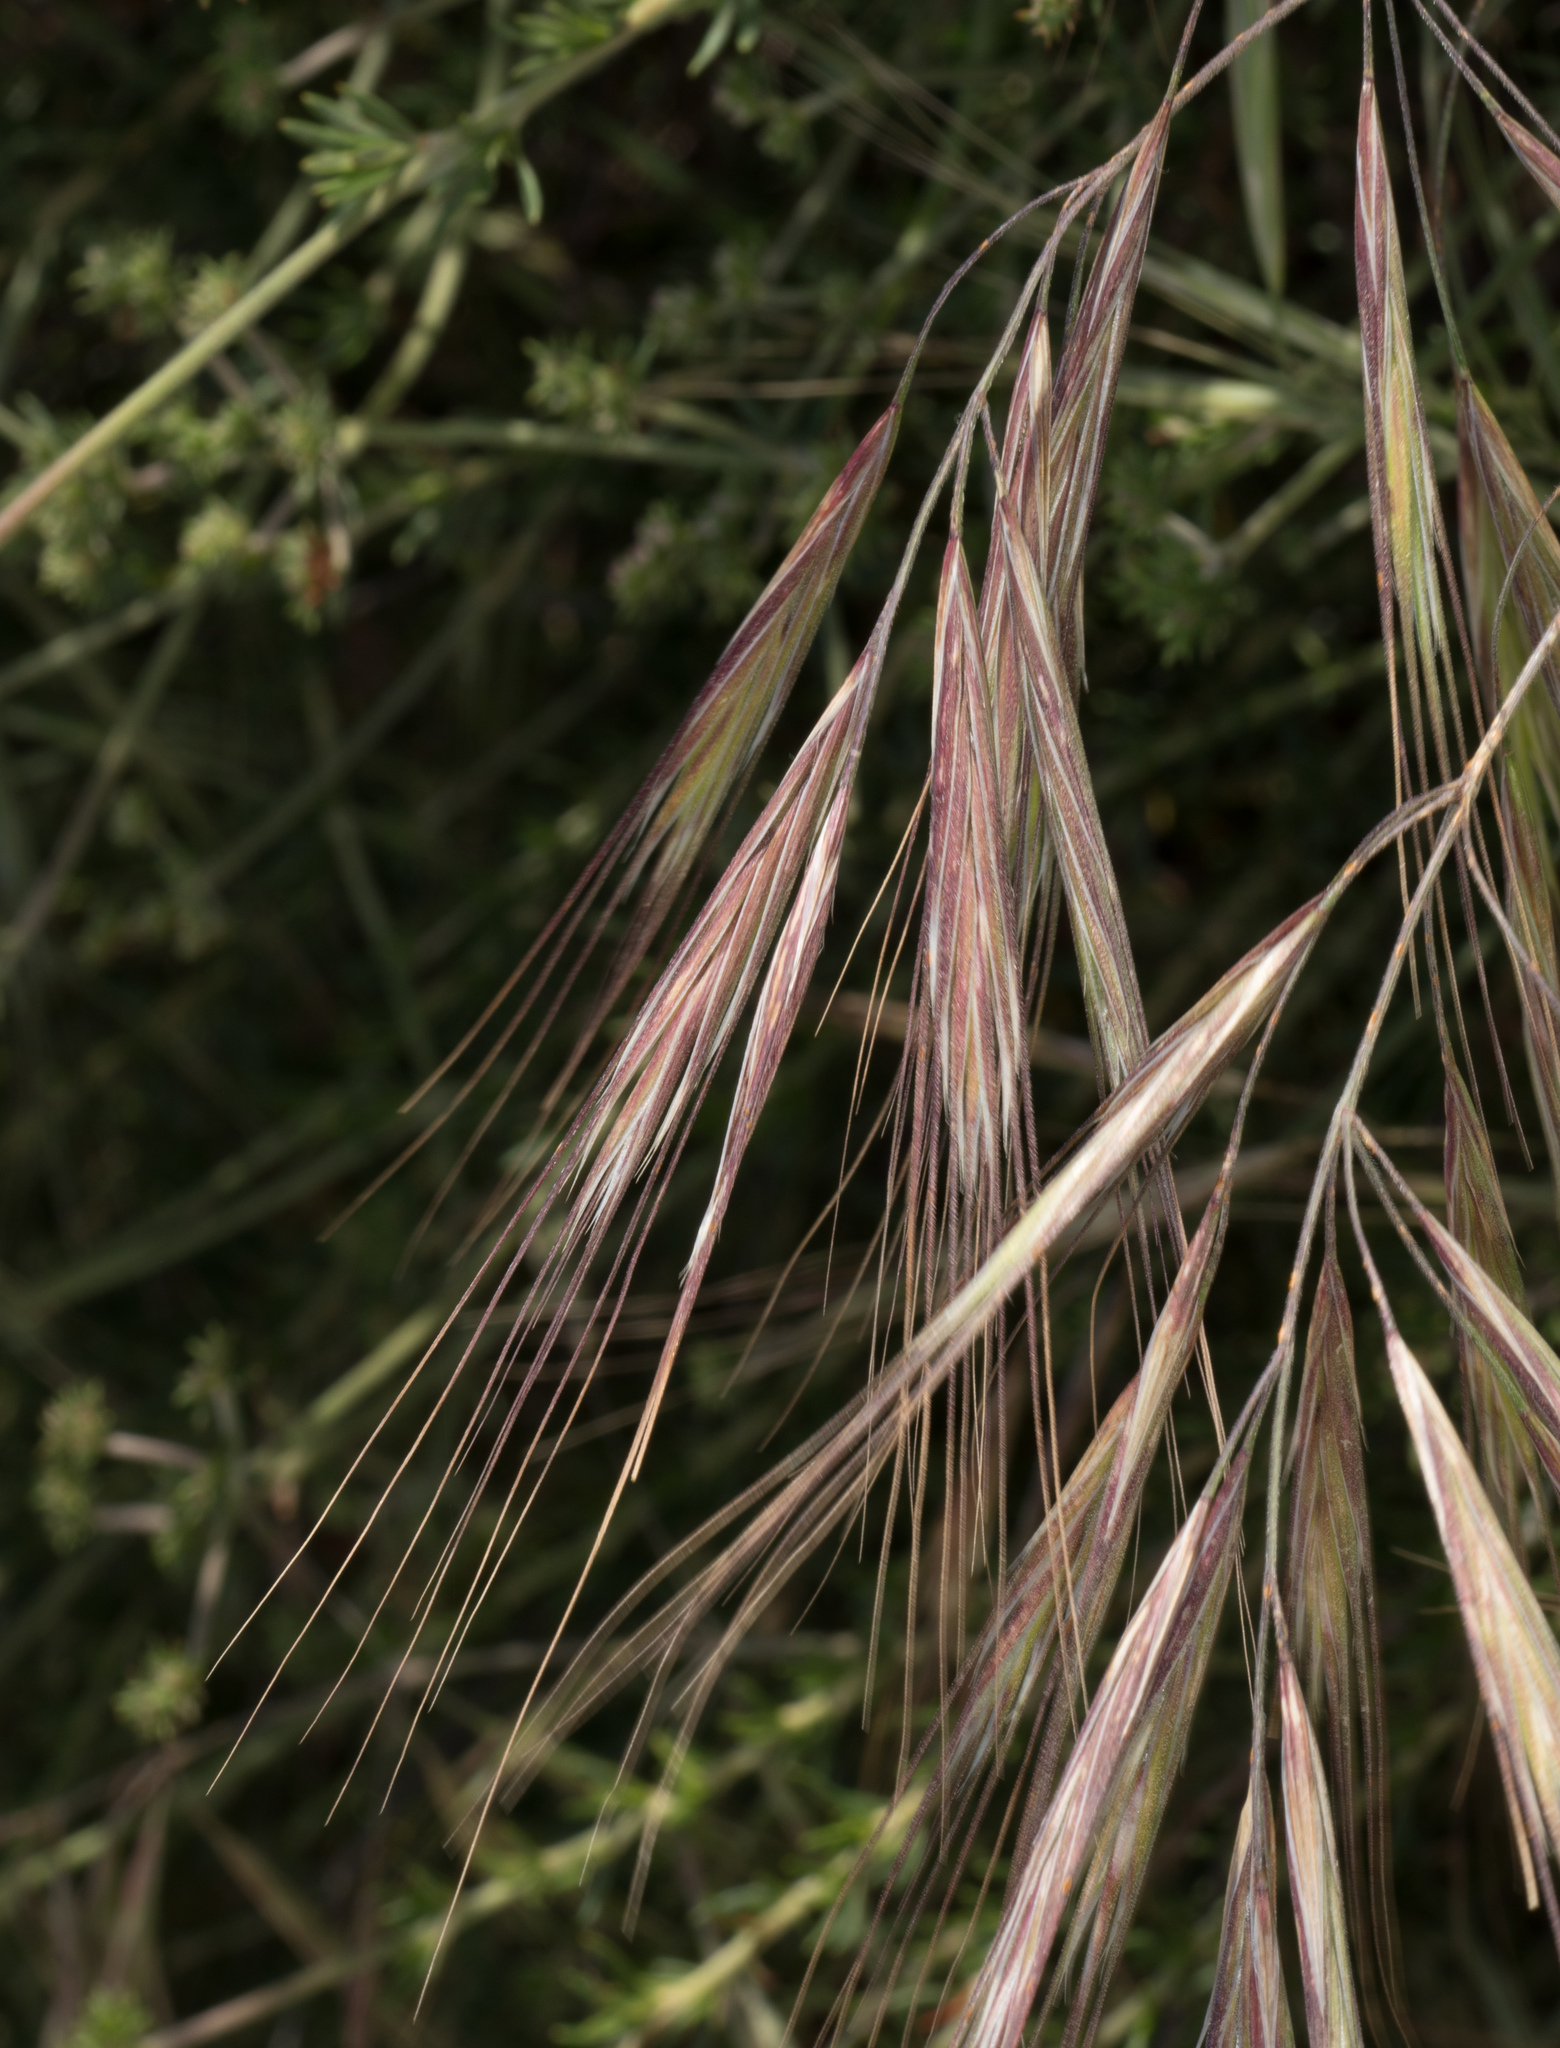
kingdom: Plantae
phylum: Tracheophyta
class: Liliopsida
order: Poales
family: Poaceae
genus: Bromus
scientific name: Bromus diandrus
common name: Ripgut brome
